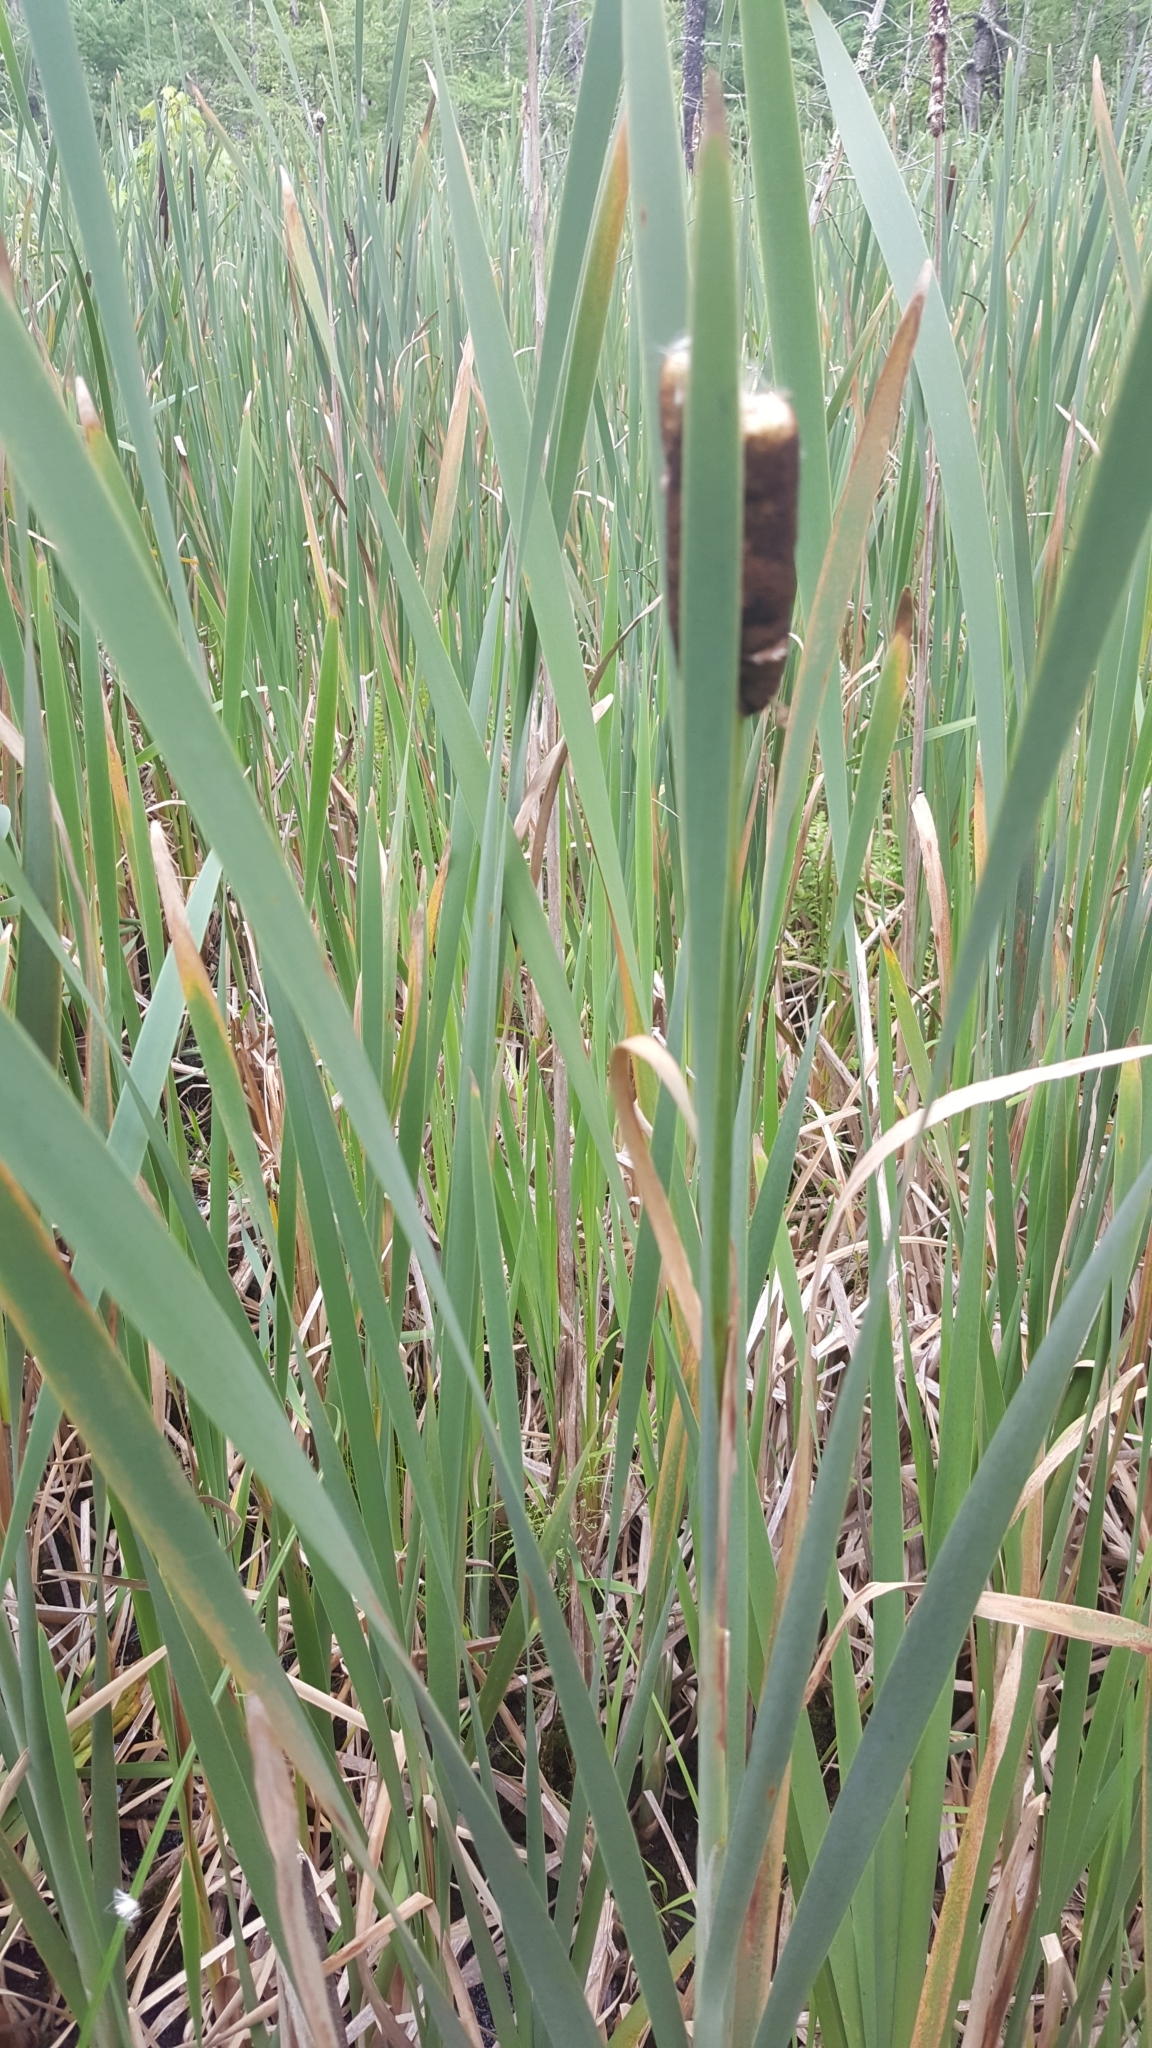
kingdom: Plantae
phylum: Tracheophyta
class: Liliopsida
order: Poales
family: Typhaceae
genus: Typha
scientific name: Typha latifolia
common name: Broadleaf cattail
